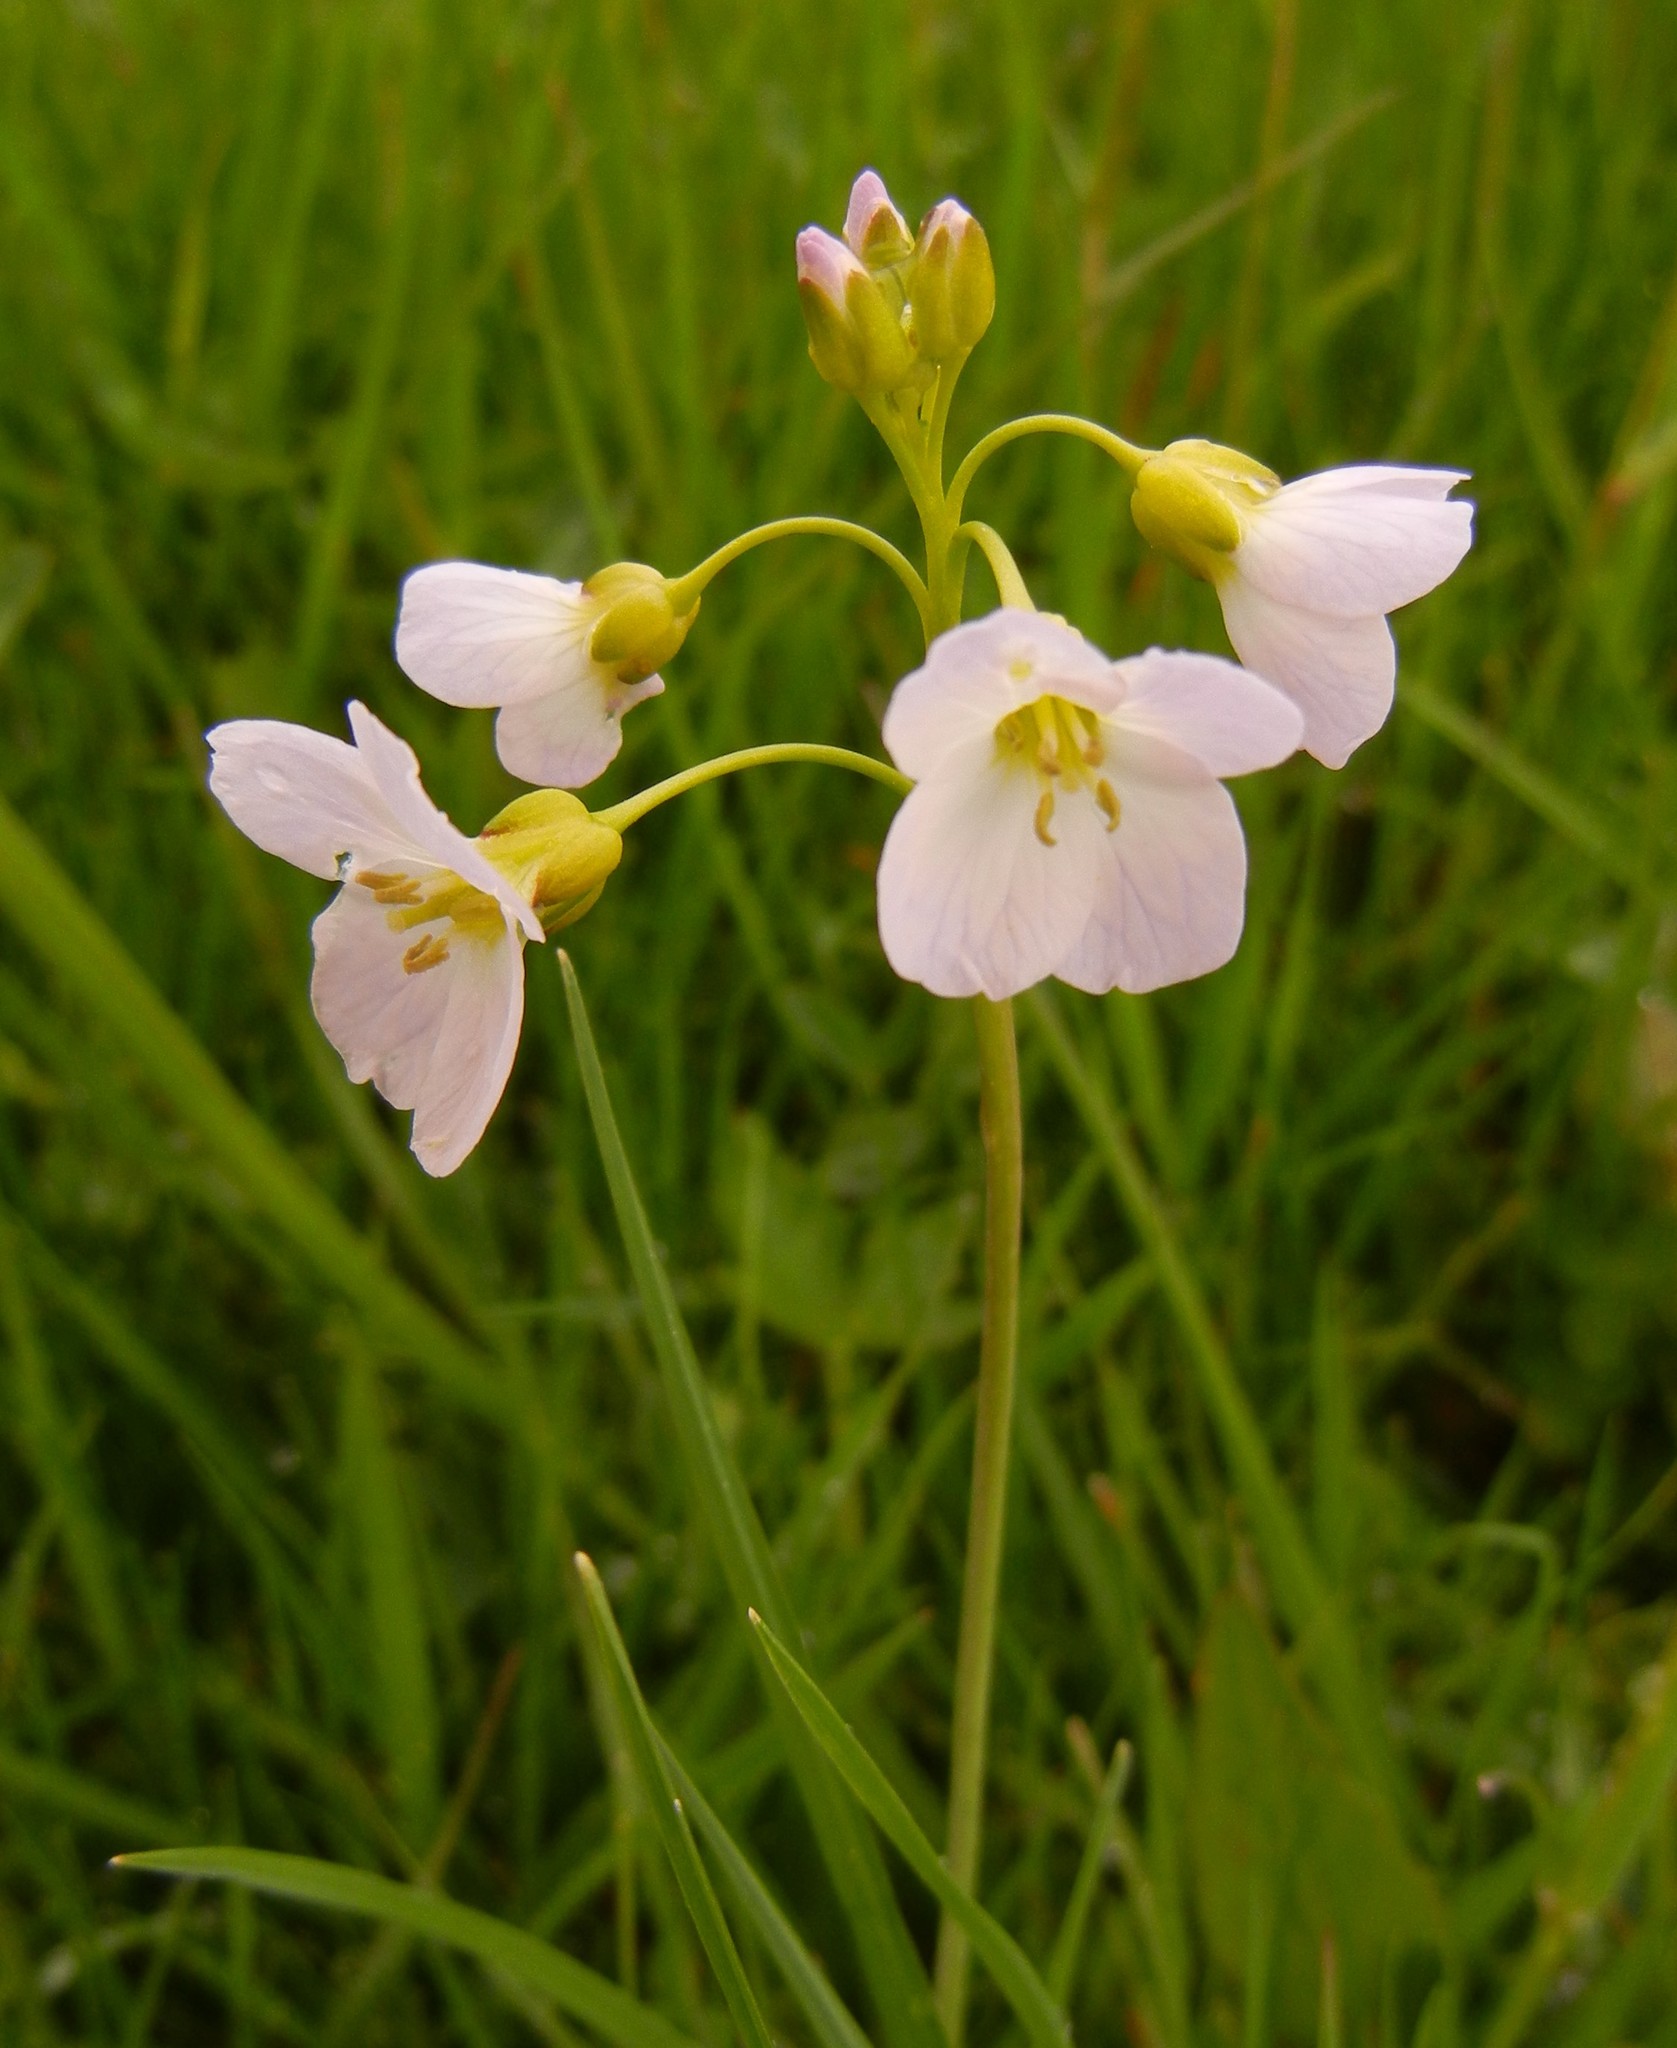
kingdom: Plantae
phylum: Tracheophyta
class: Magnoliopsida
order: Brassicales
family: Brassicaceae
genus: Cardamine
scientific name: Cardamine pratensis
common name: Cuckoo flower
